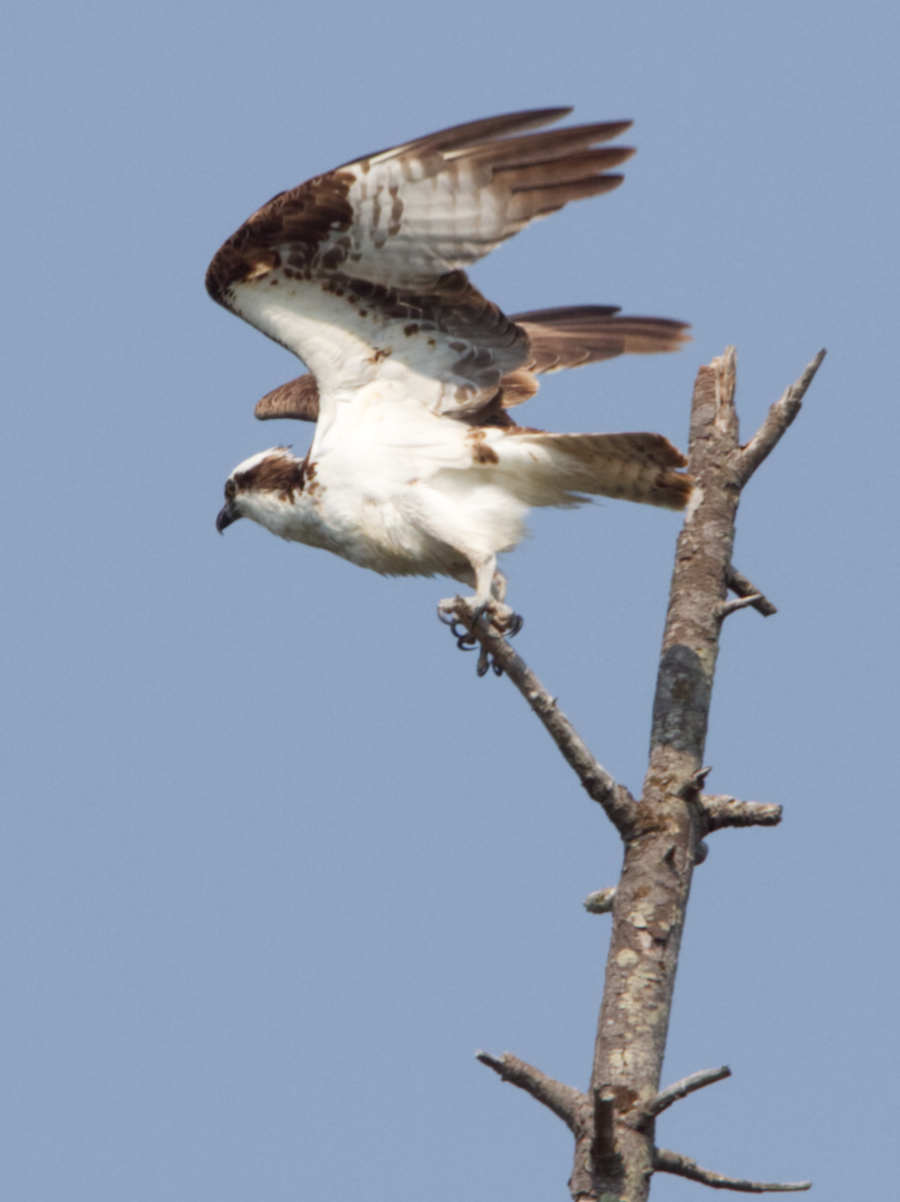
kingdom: Animalia
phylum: Chordata
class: Aves
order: Accipitriformes
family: Pandionidae
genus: Pandion
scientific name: Pandion haliaetus
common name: Osprey
